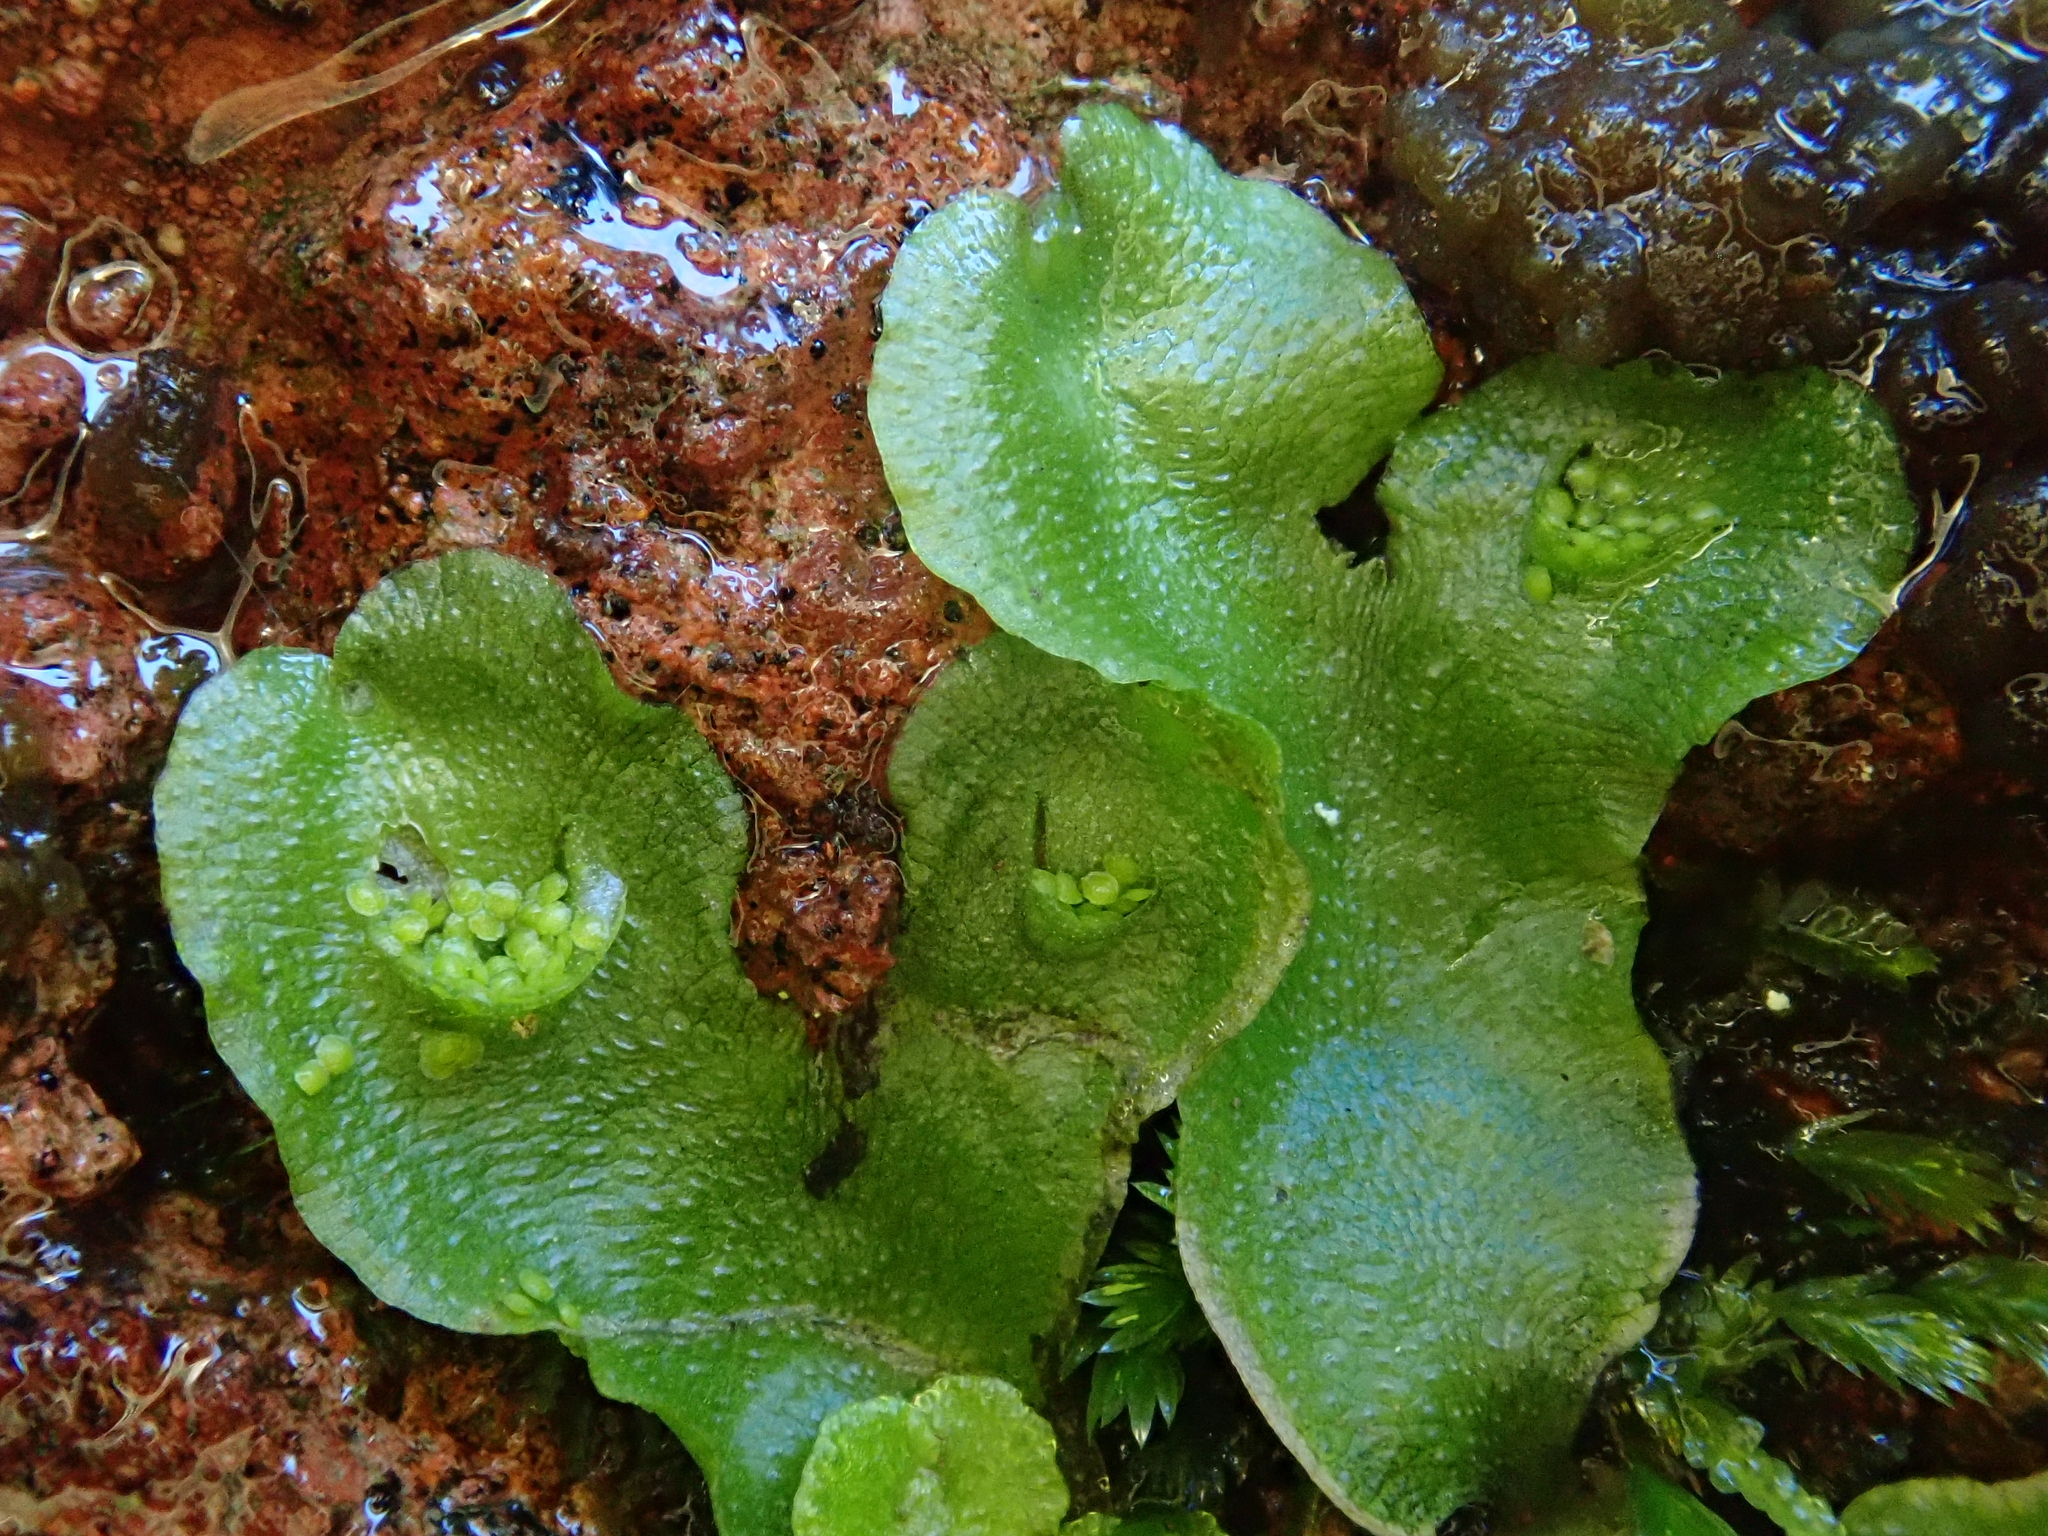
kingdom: Plantae
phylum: Marchantiophyta
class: Marchantiopsida
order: Lunulariales
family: Lunulariaceae
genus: Lunularia
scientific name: Lunularia cruciata
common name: Crescent-cup liverwort
